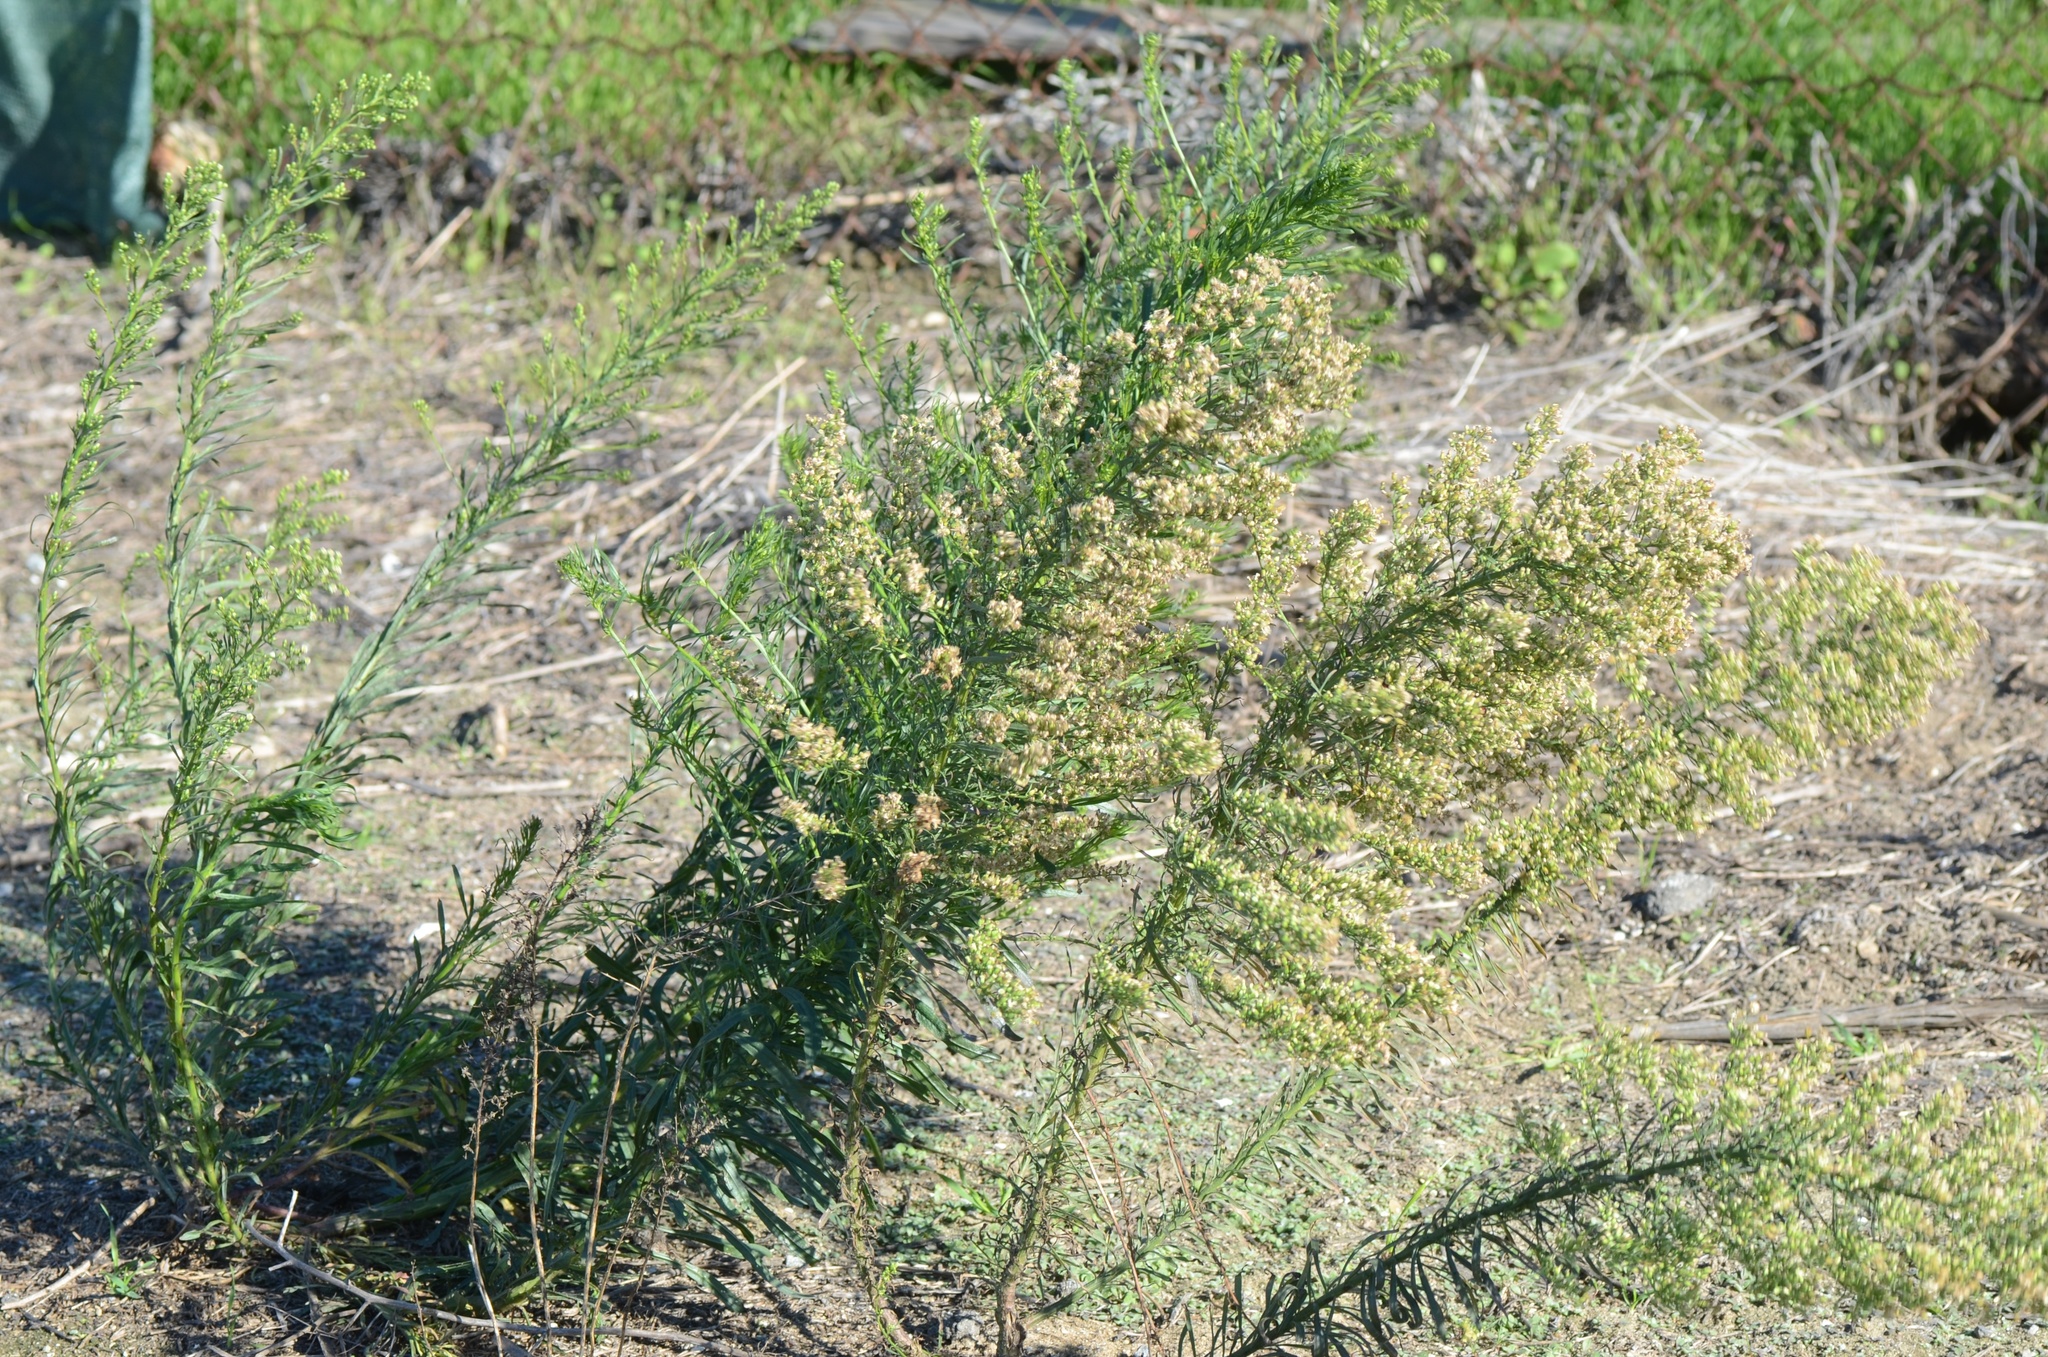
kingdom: Plantae
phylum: Tracheophyta
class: Magnoliopsida
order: Asterales
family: Asteraceae
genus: Erigeron
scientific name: Erigeron canadensis
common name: Canadian fleabane
